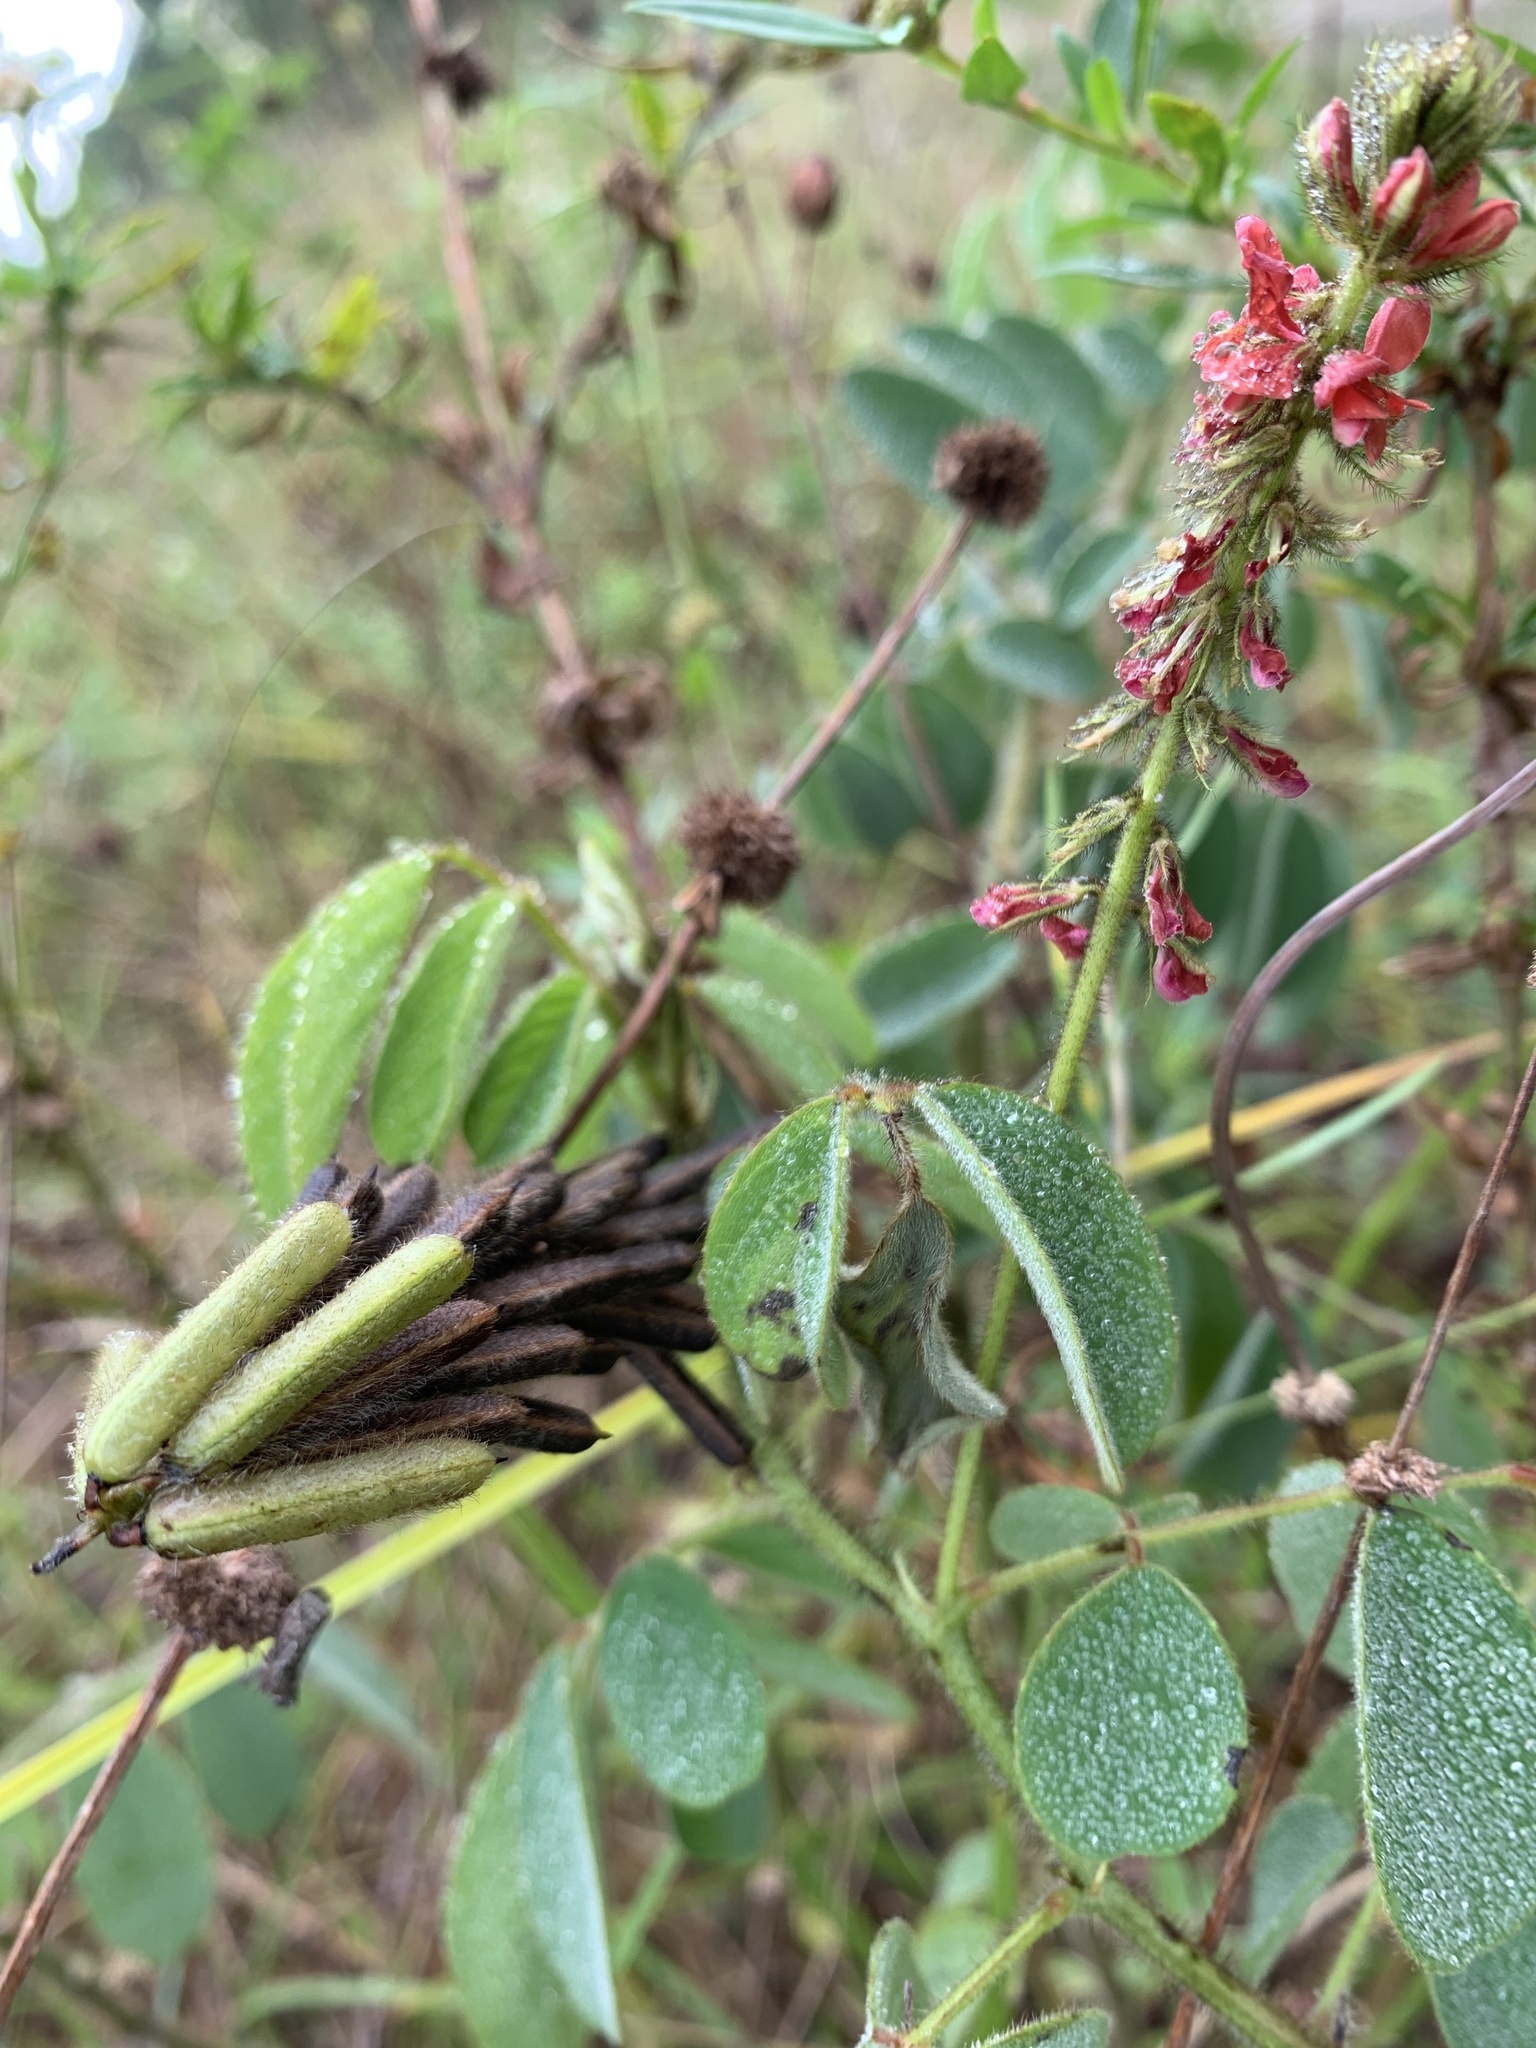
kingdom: Plantae
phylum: Tracheophyta
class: Magnoliopsida
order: Fabales
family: Fabaceae
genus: Indigofera
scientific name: Indigofera hirsuta
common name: Hairy indigo
